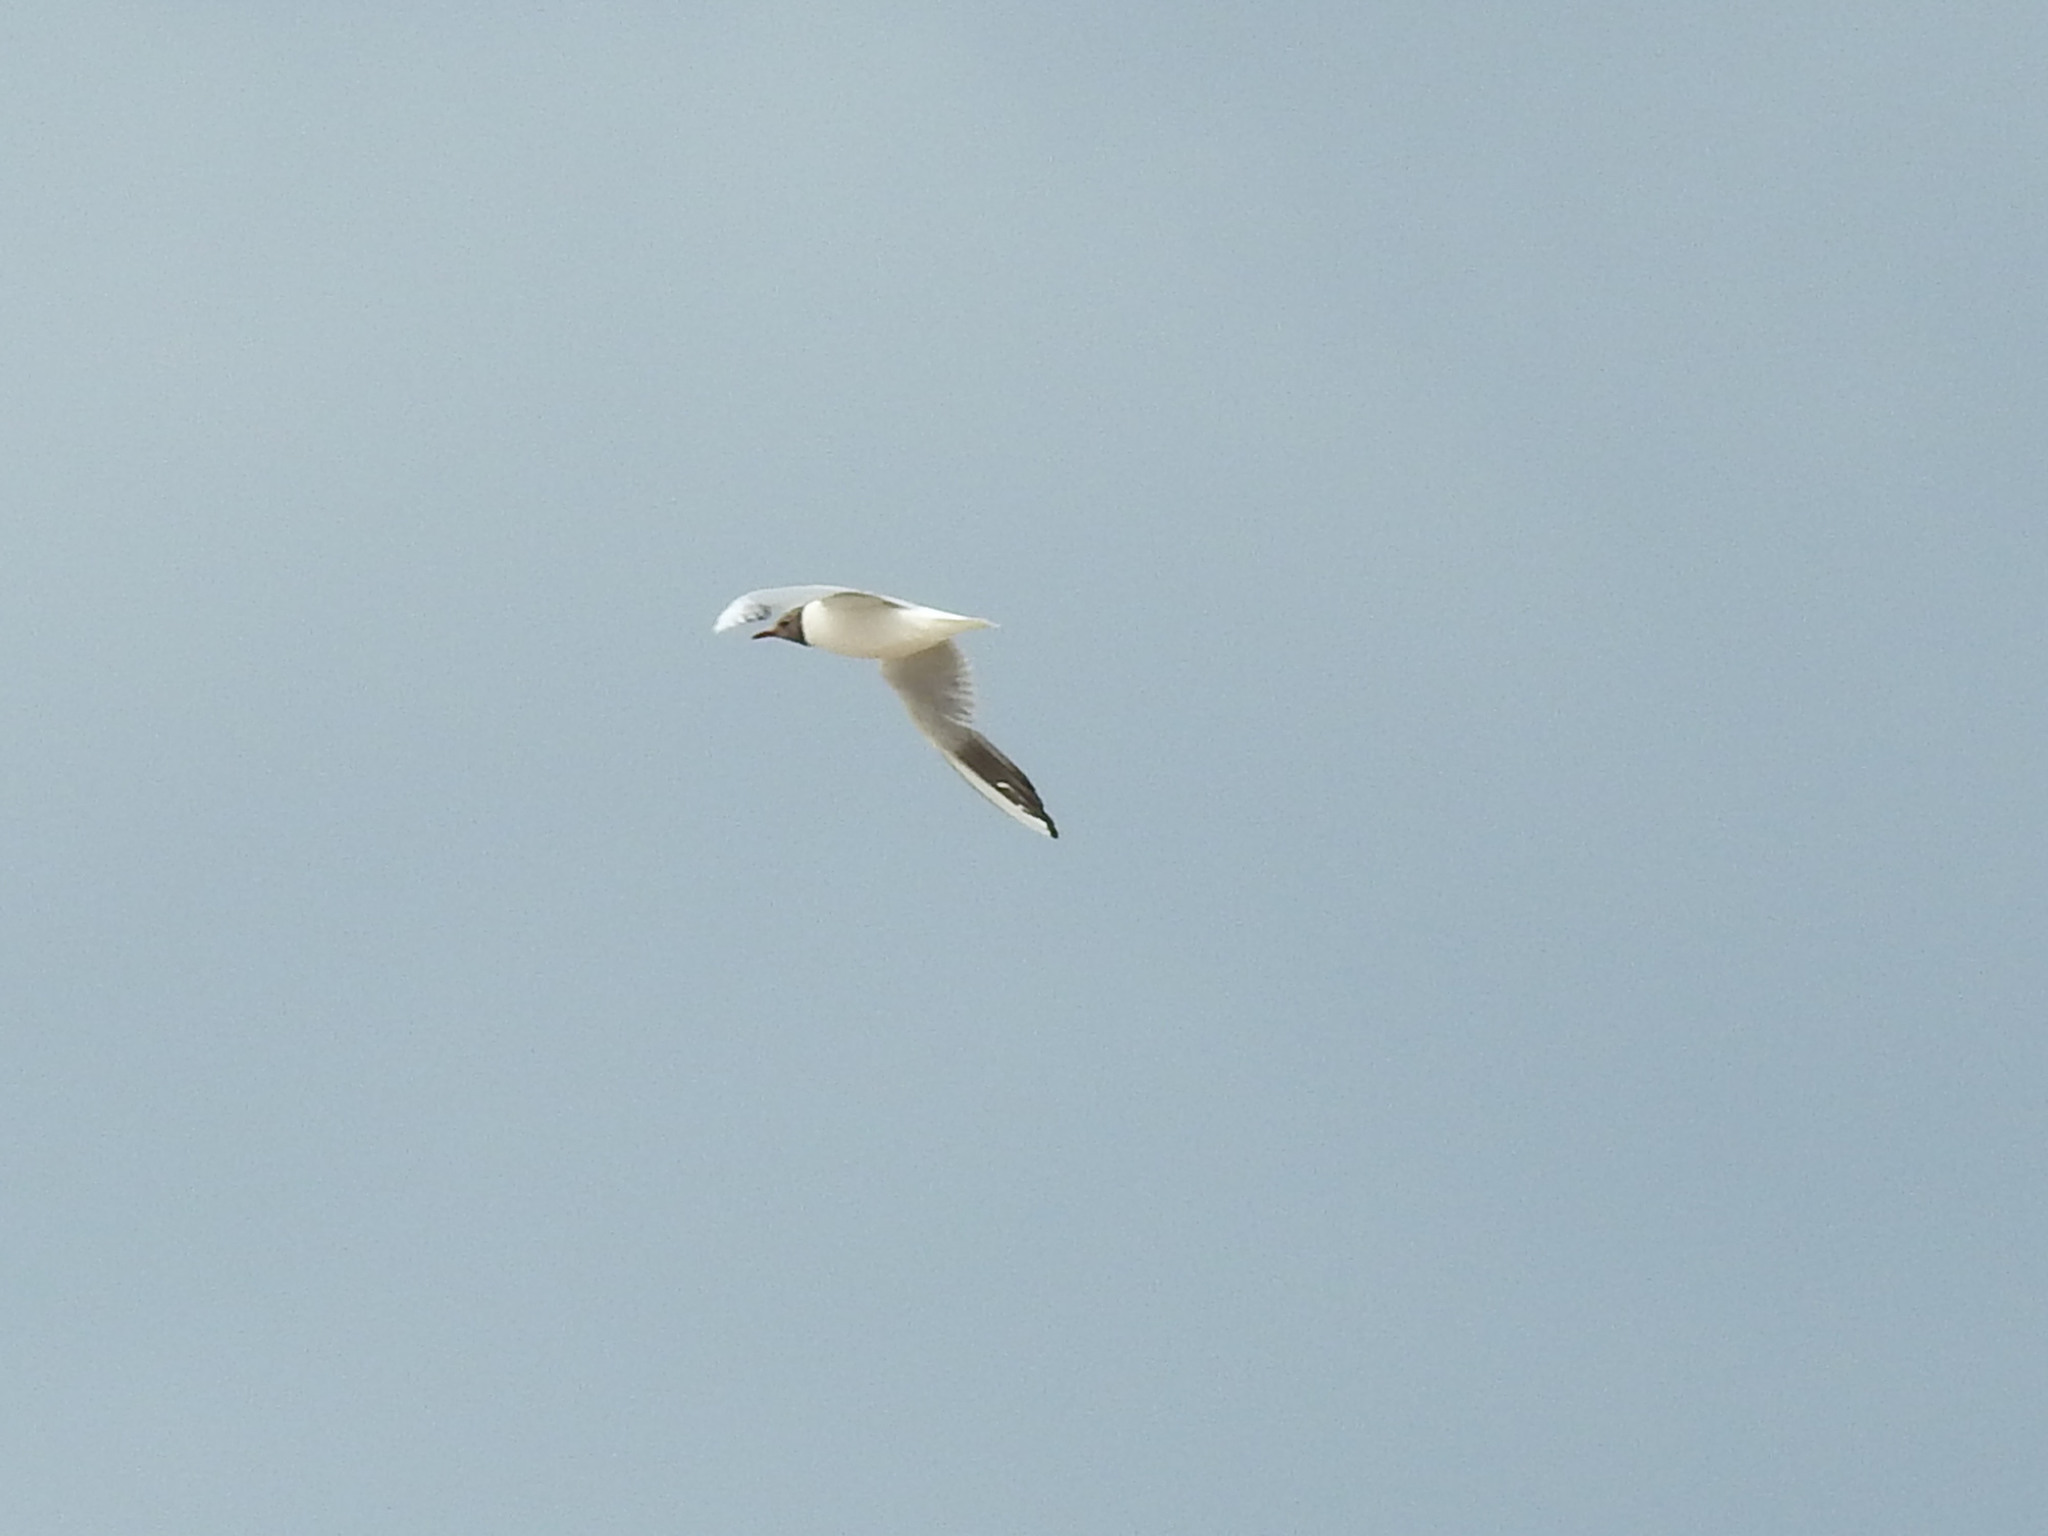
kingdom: Animalia
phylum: Chordata
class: Aves
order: Charadriiformes
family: Laridae
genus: Chroicocephalus
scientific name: Chroicocephalus ridibundus
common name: Black-headed gull
